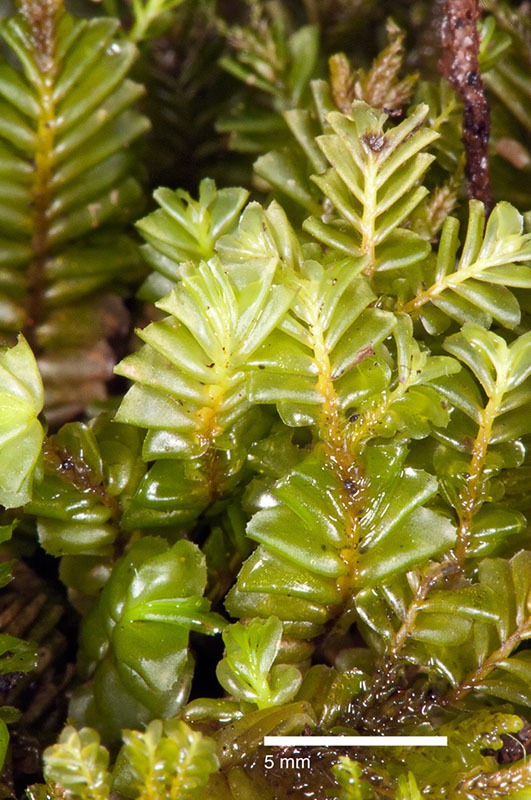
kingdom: Plantae
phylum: Marchantiophyta
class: Jungermanniopsida
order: Jungermanniales
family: Plagiochilaceae
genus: Plagiochila
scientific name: Plagiochila gregaria
